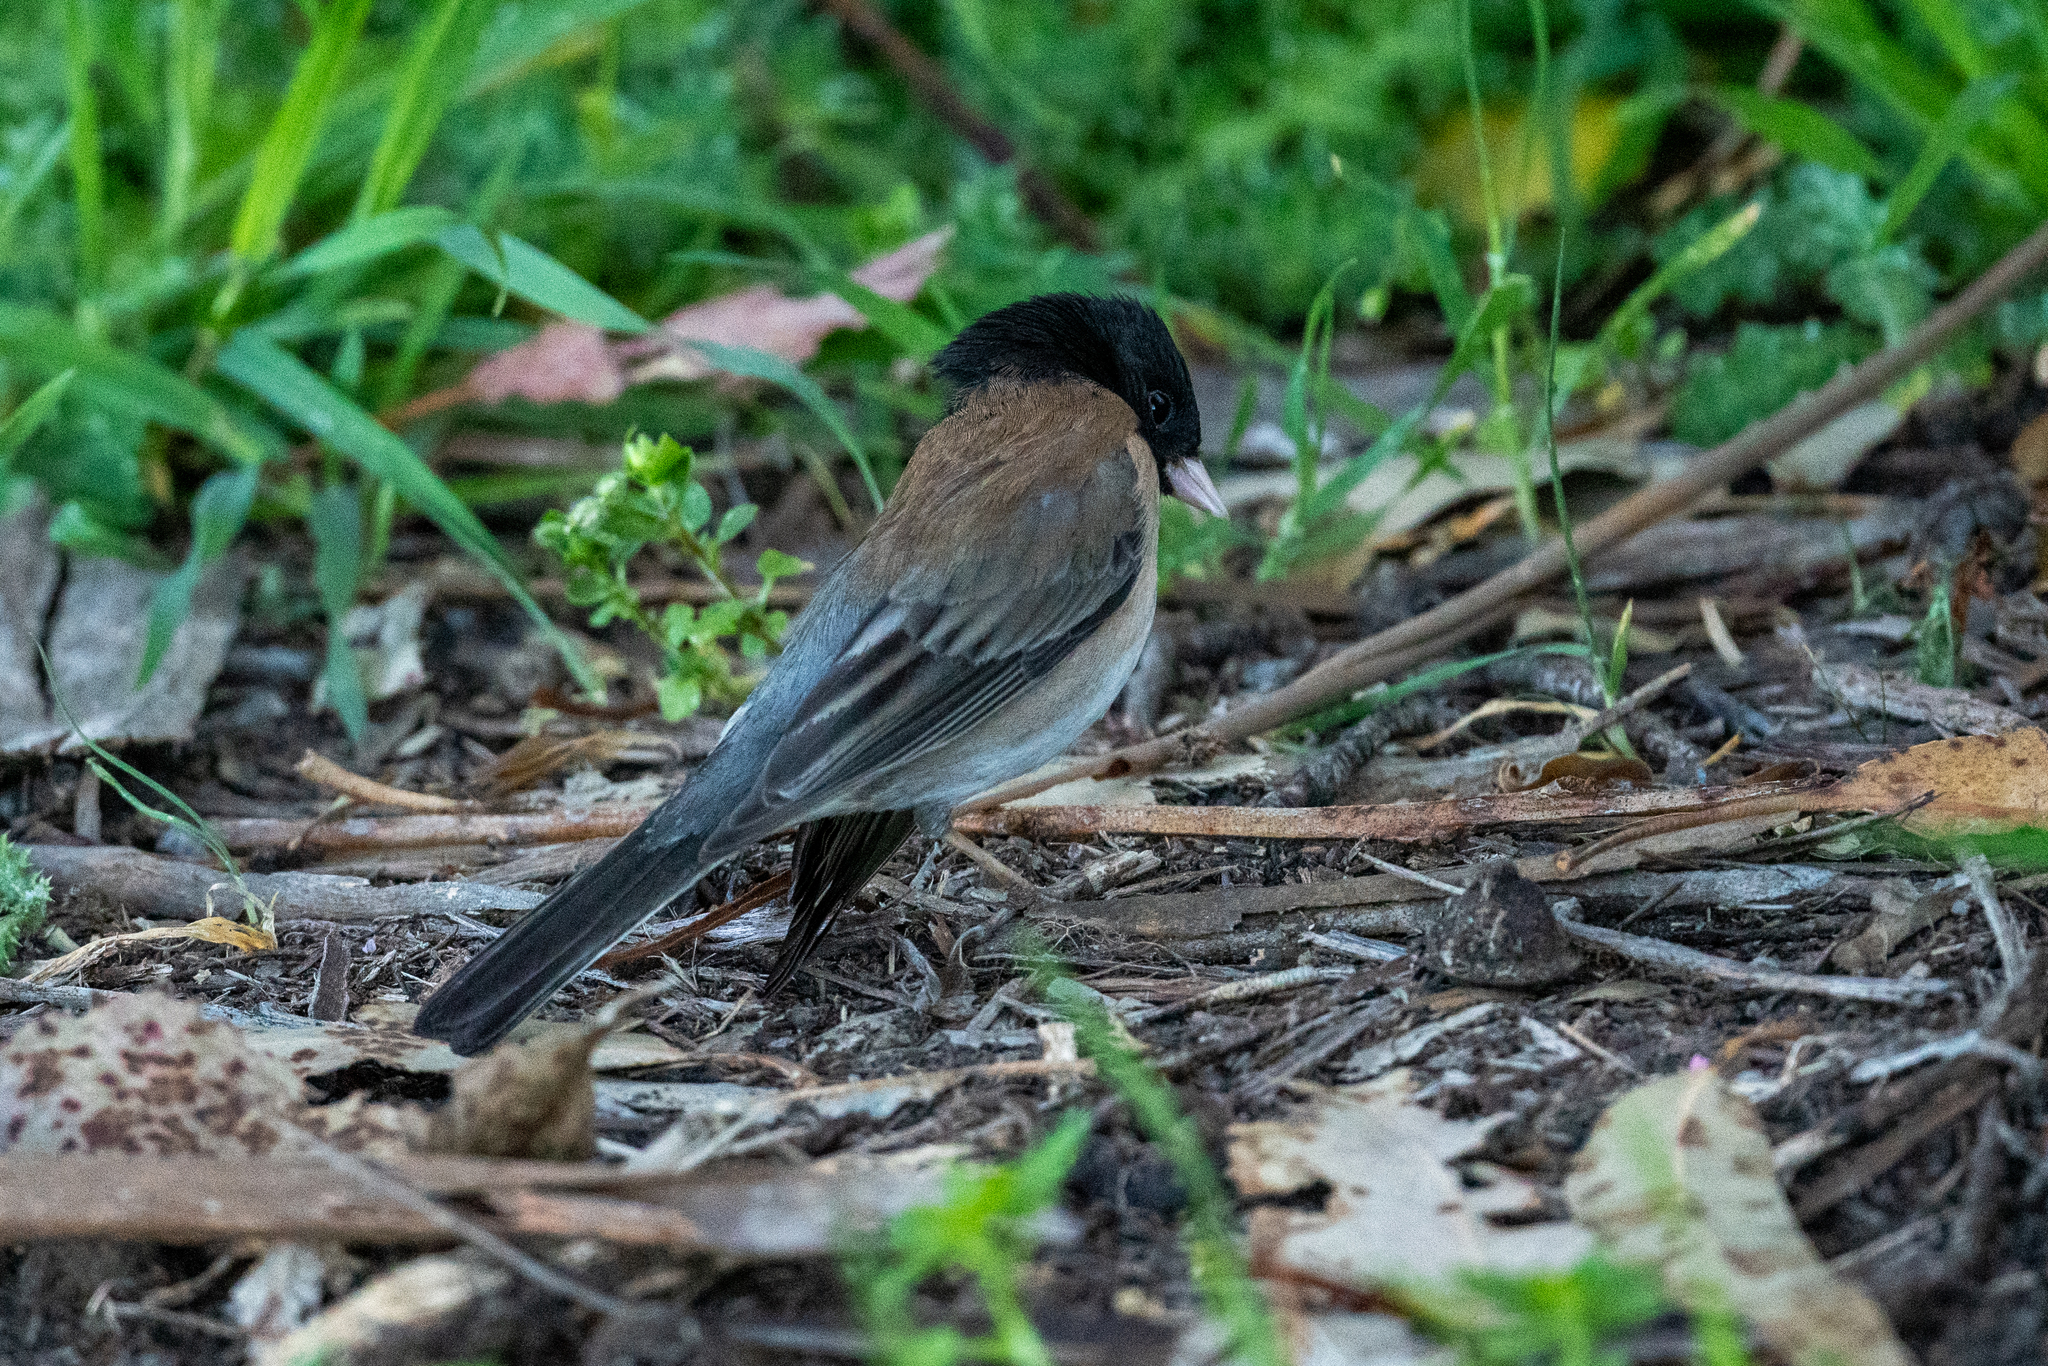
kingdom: Animalia
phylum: Chordata
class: Aves
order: Passeriformes
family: Passerellidae
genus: Junco
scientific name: Junco hyemalis
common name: Dark-eyed junco
